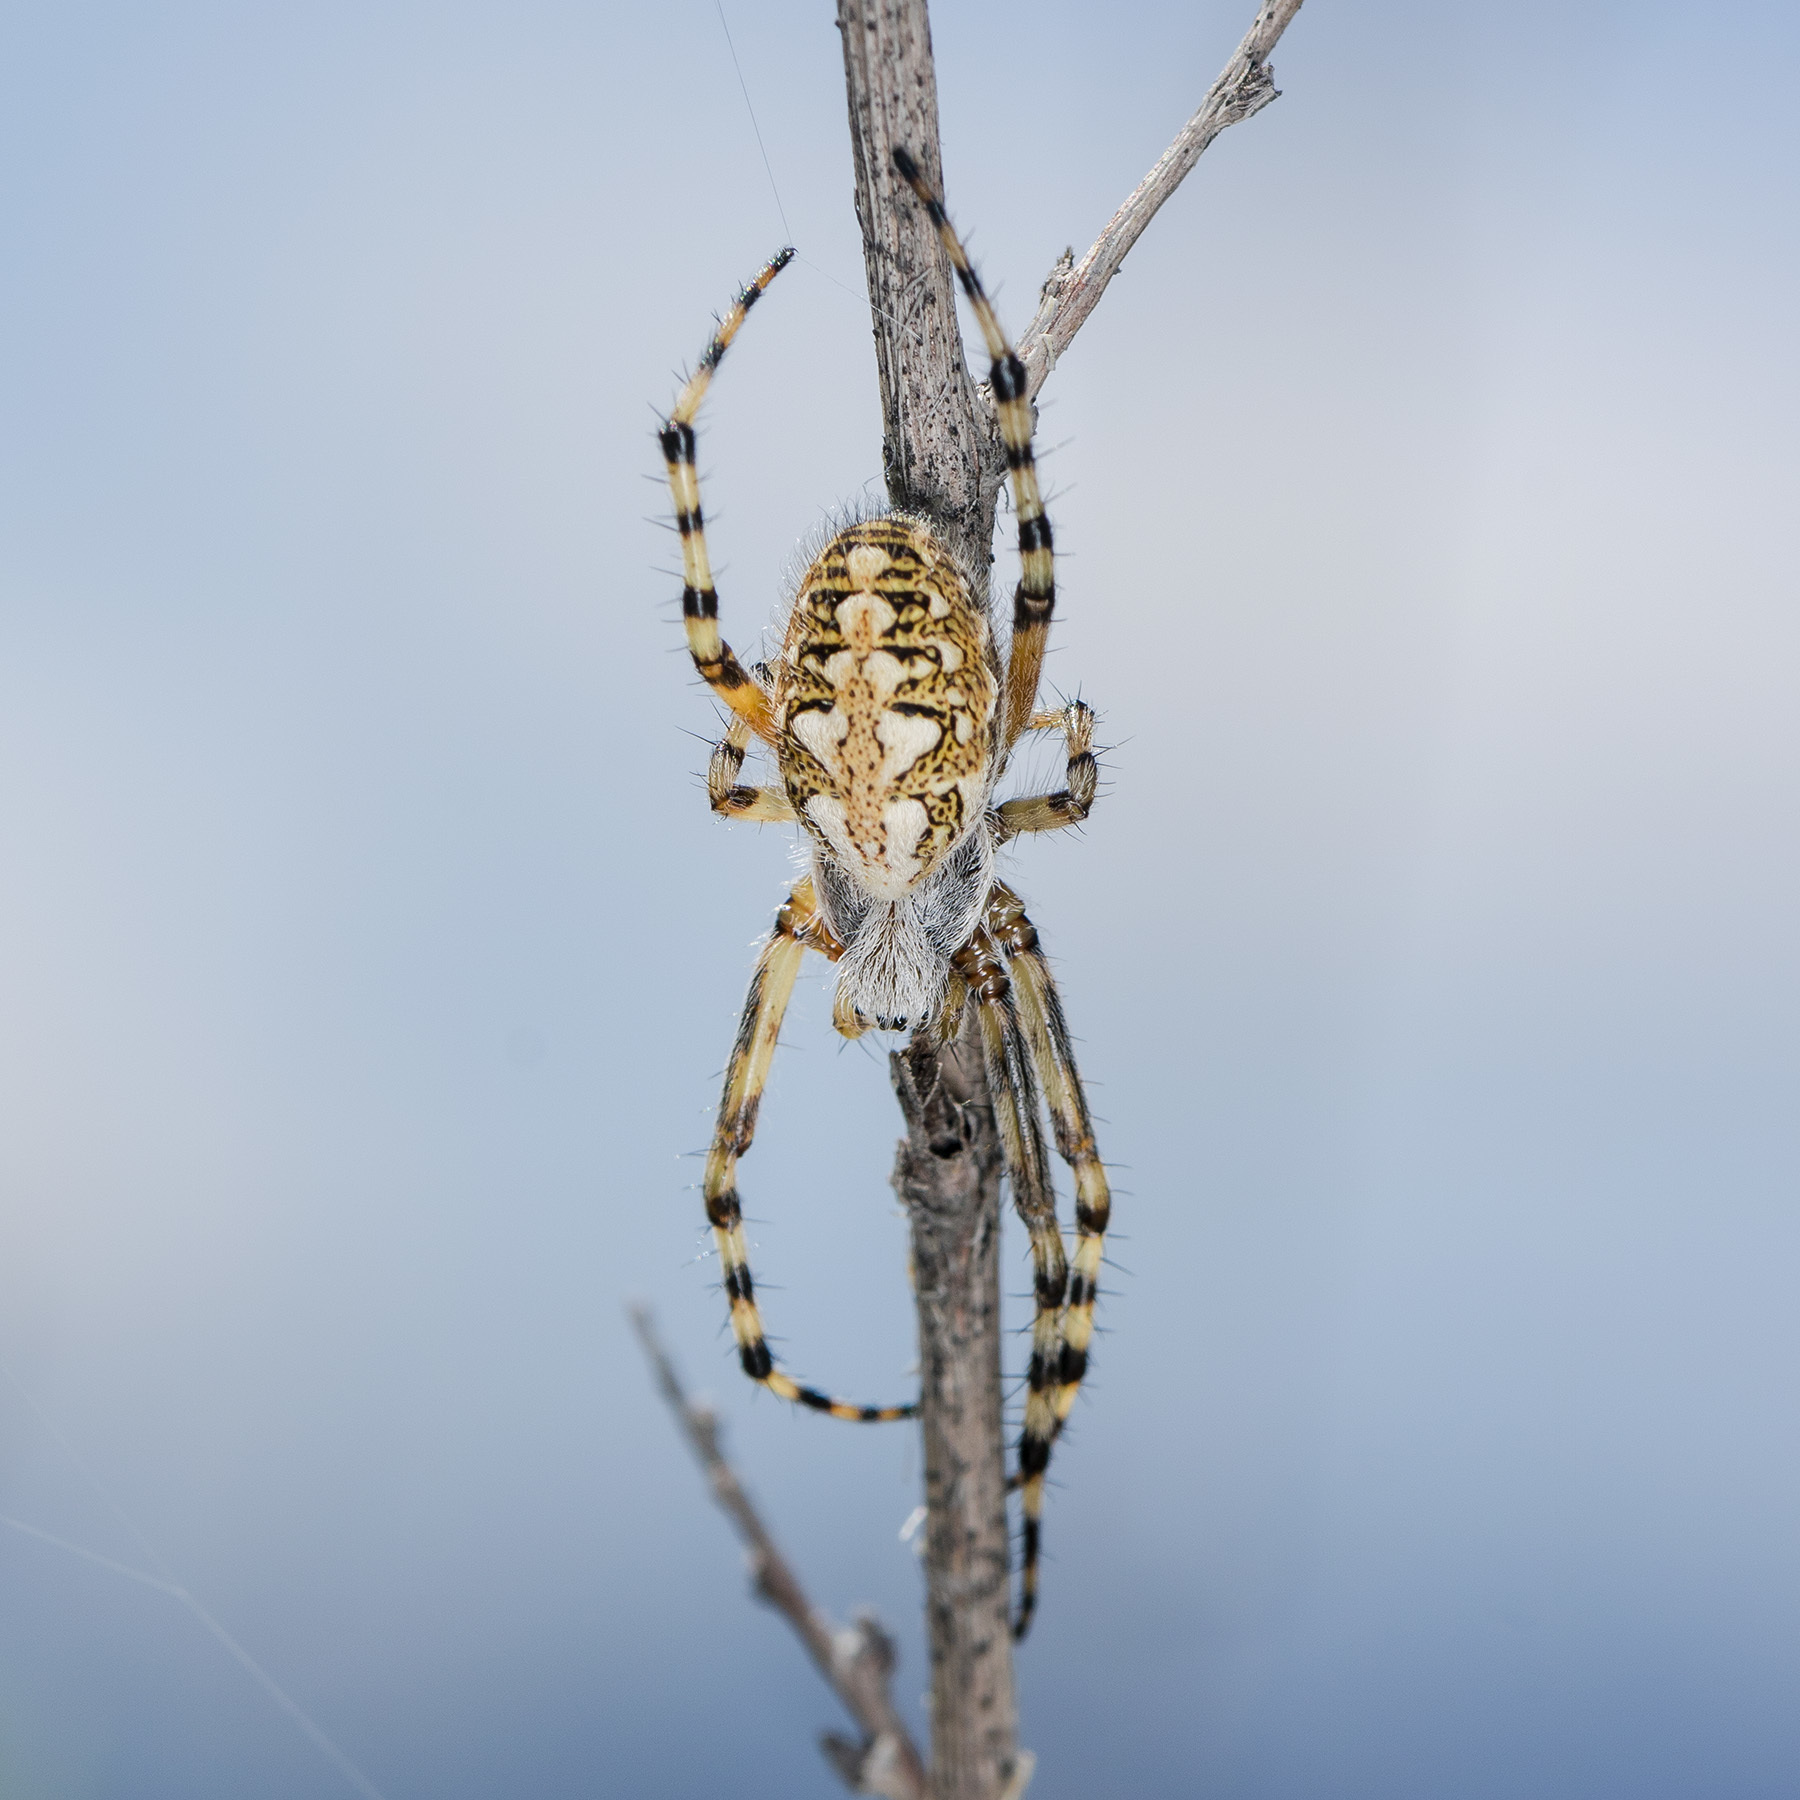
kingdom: Animalia
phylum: Arthropoda
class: Arachnida
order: Araneae
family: Araneidae
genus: Aculepeira
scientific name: Aculepeira armida
